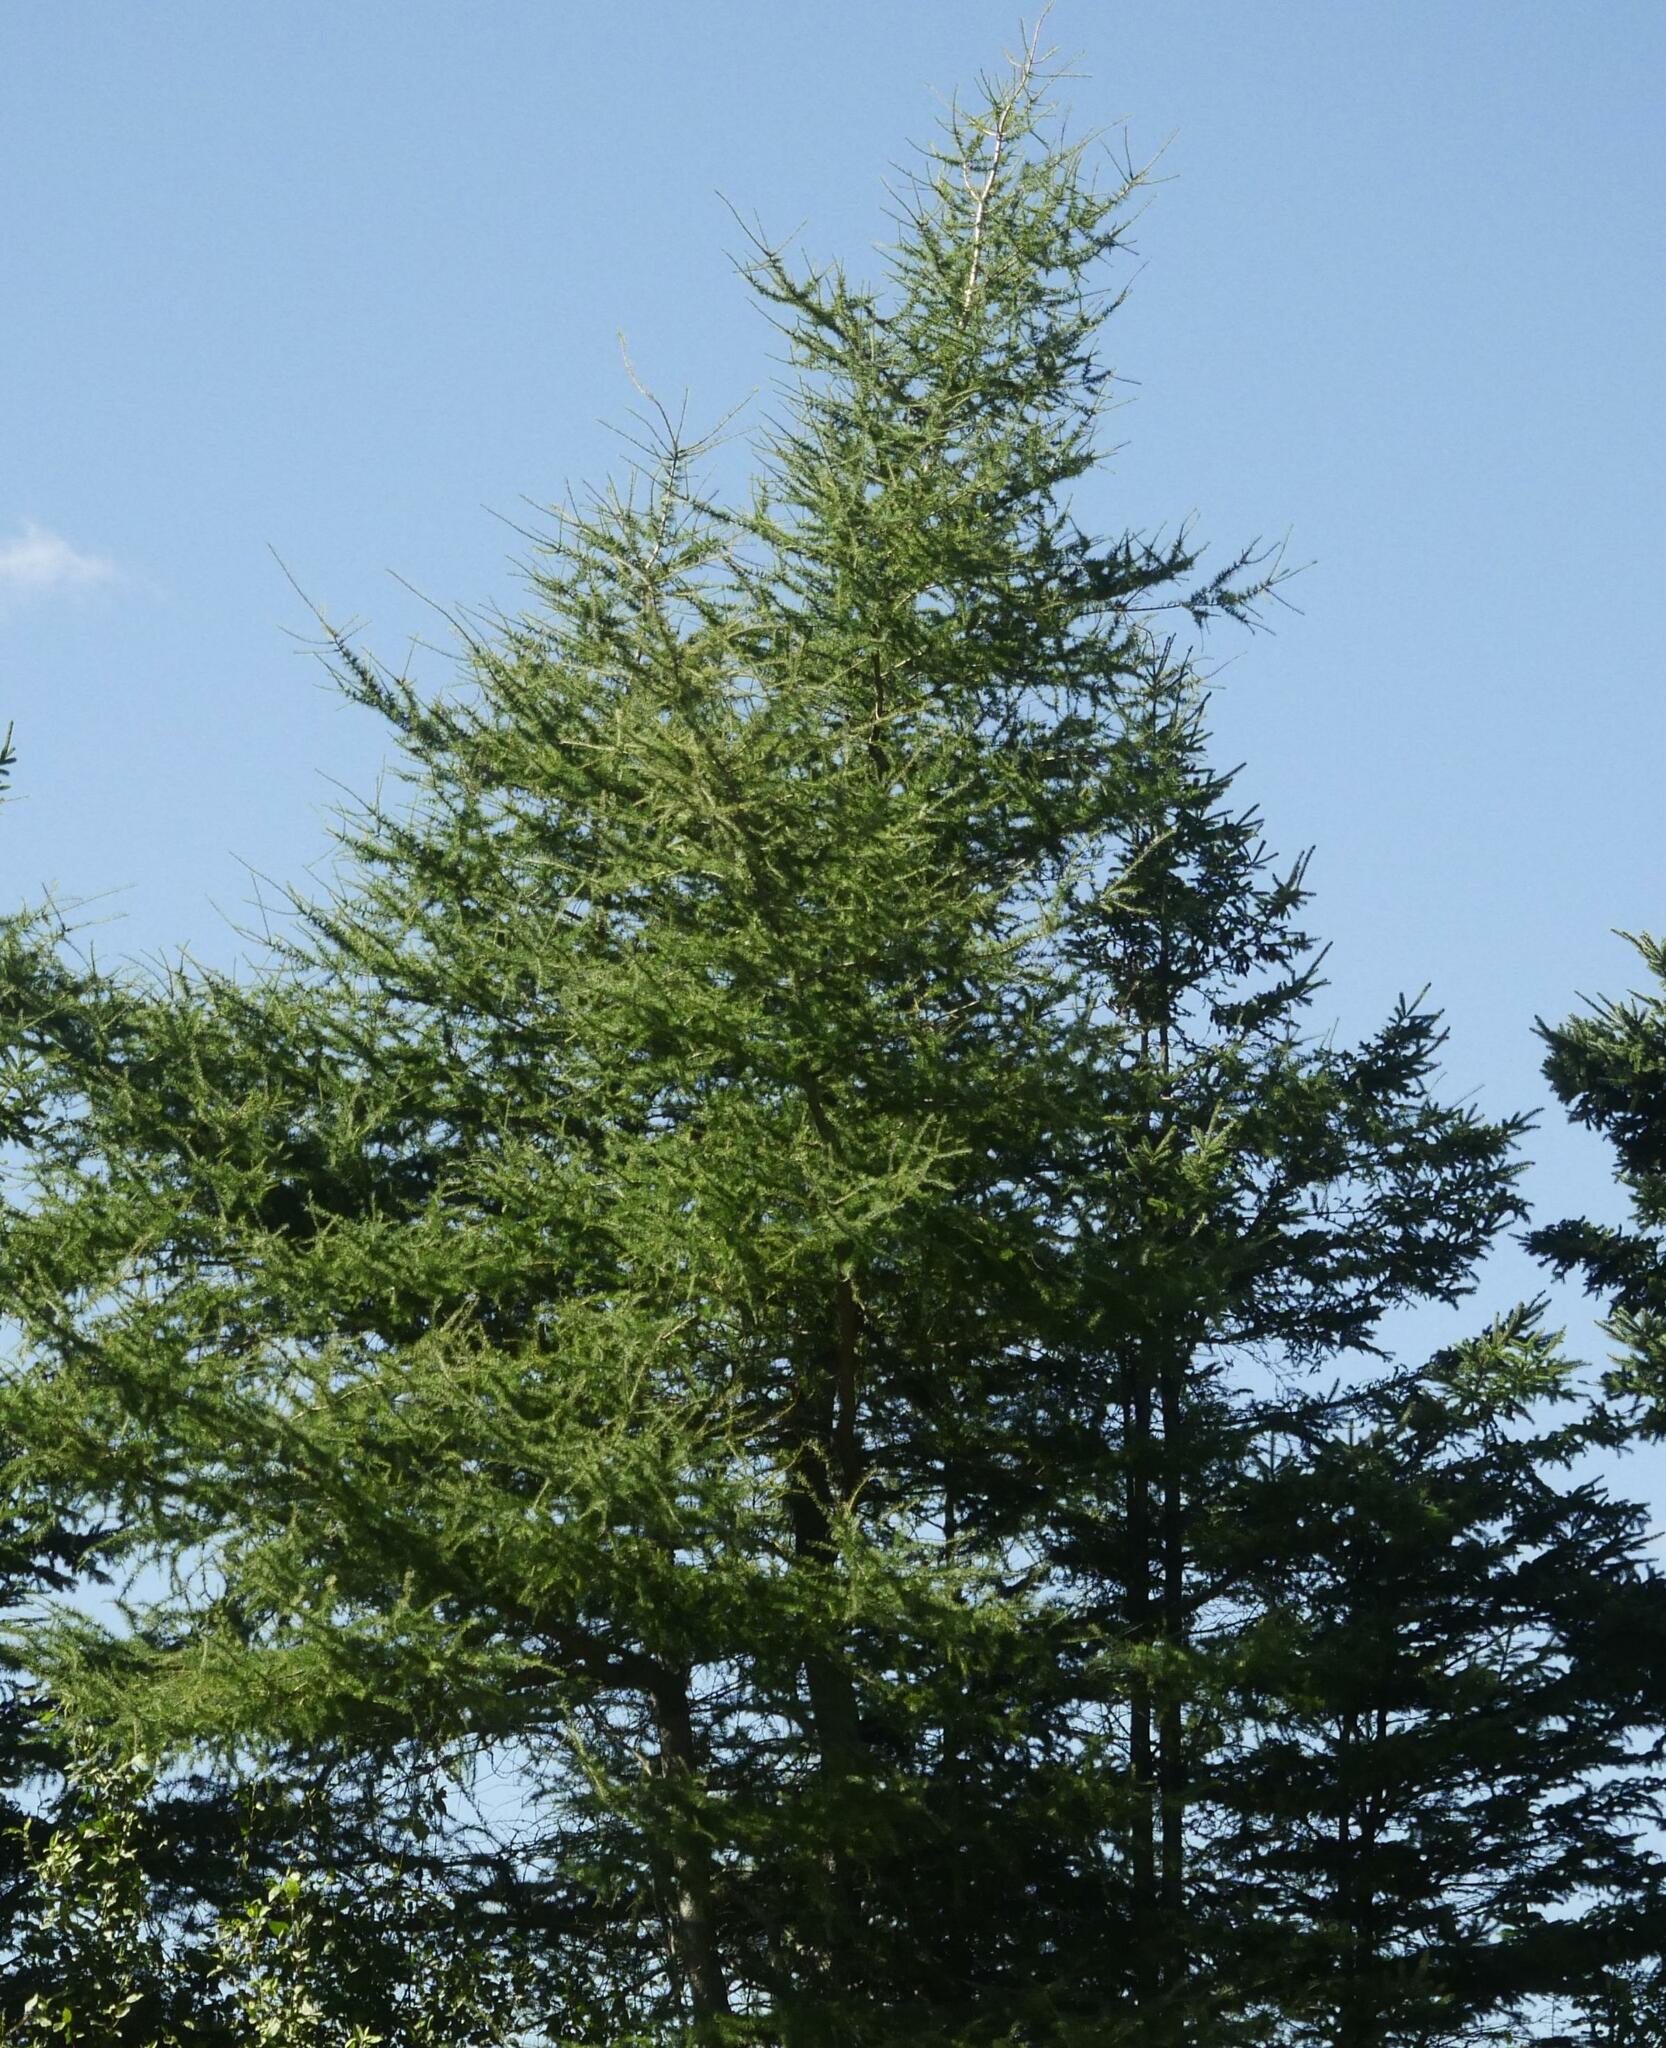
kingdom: Plantae
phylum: Tracheophyta
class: Pinopsida
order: Pinales
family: Pinaceae
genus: Larix
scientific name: Larix laricina
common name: American larch
